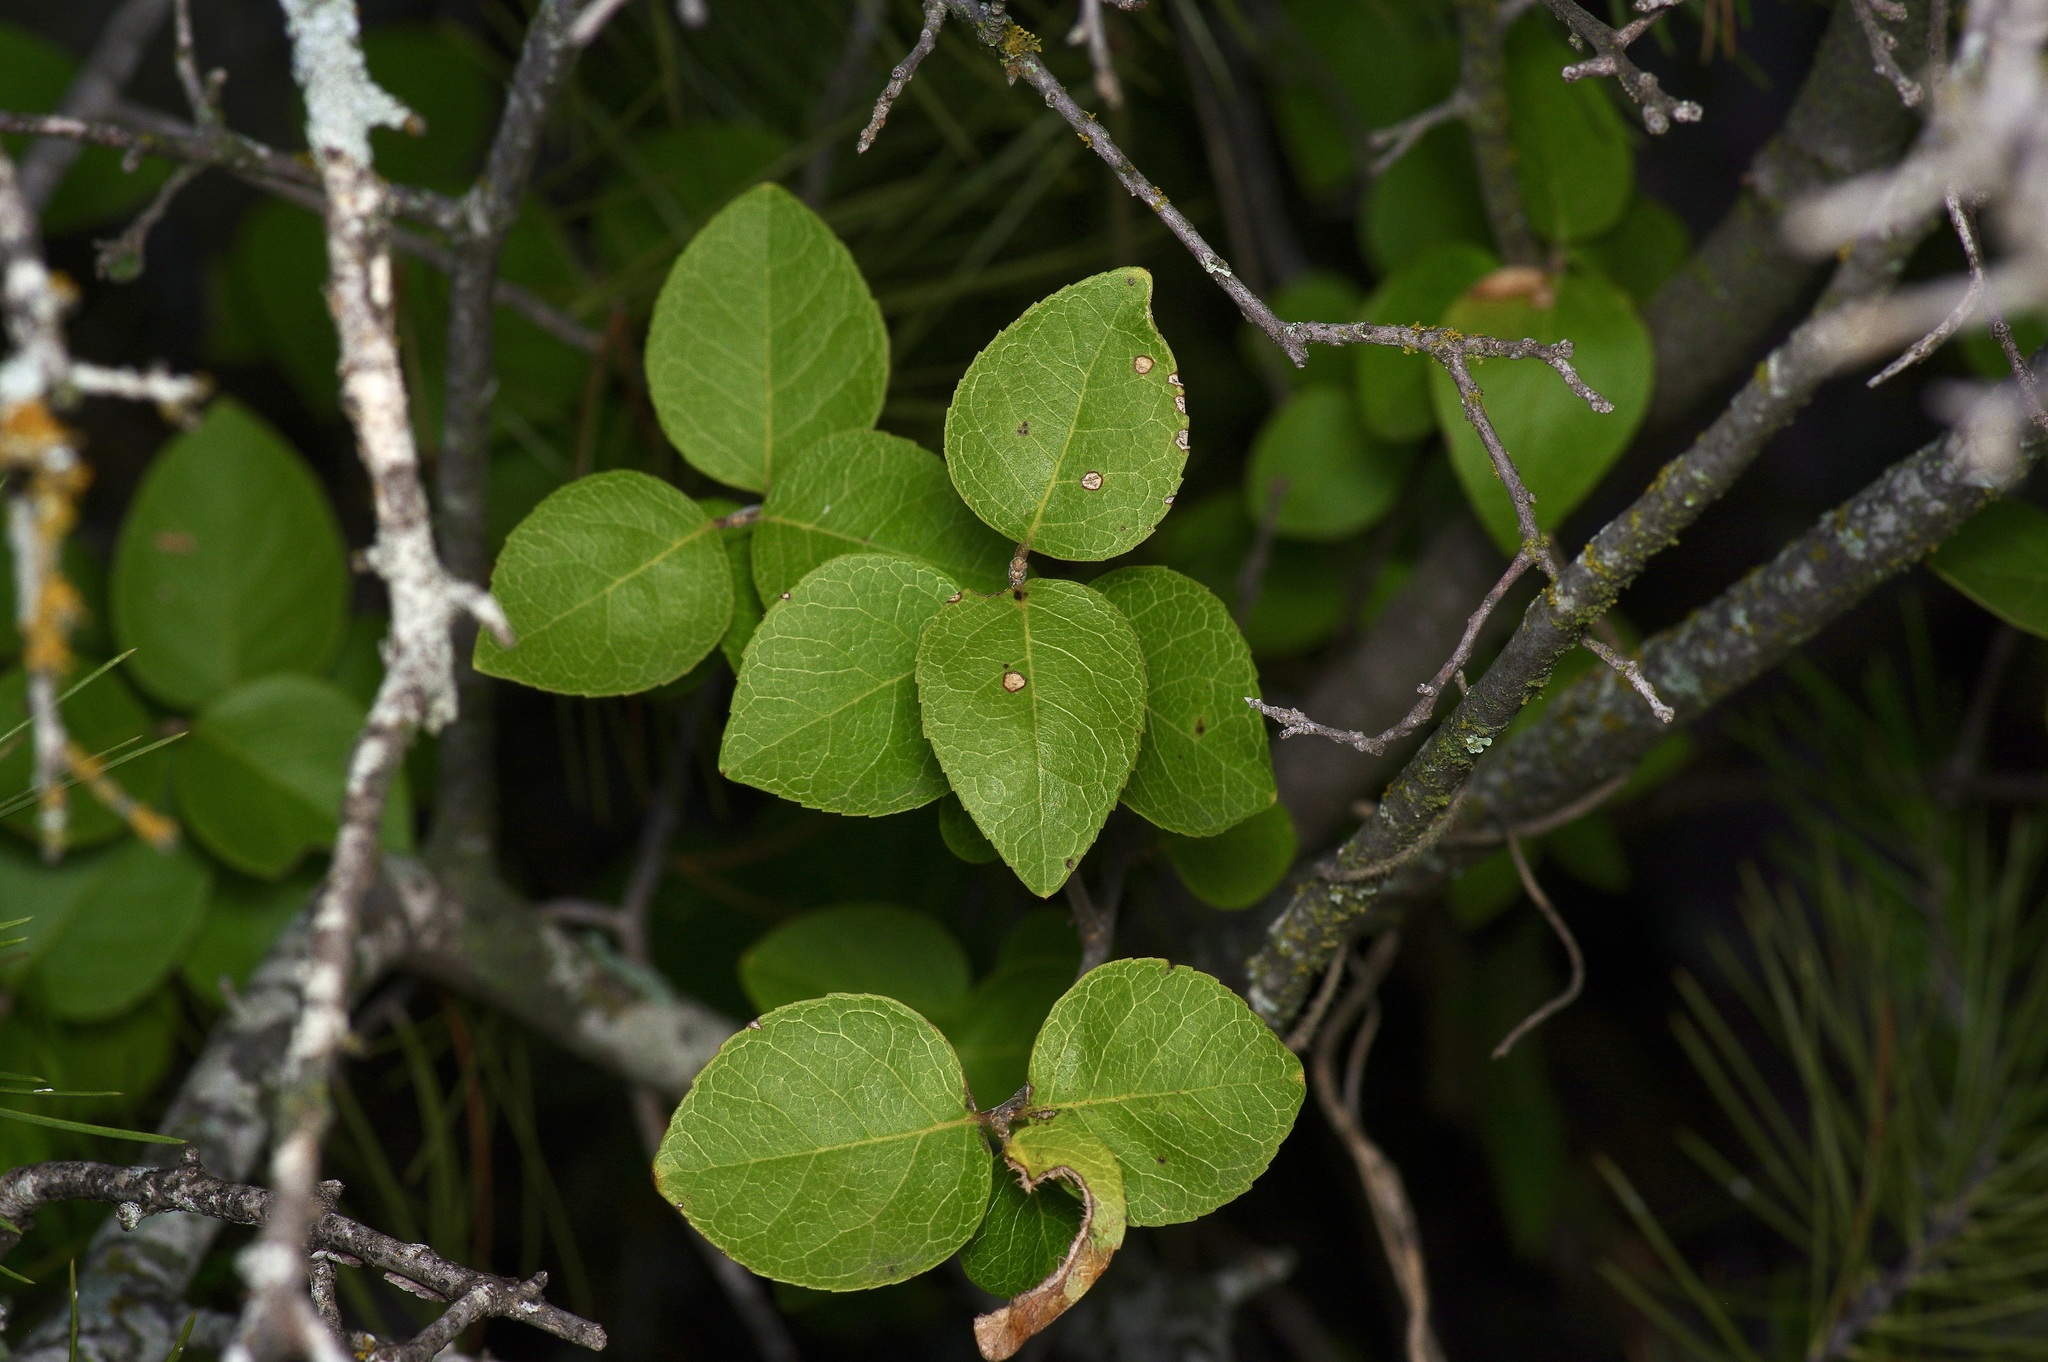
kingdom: Plantae
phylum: Tracheophyta
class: Magnoliopsida
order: Lamiales
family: Oleaceae
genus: Forestiera
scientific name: Forestiera reticulata
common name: Netleaf swamp-privet
